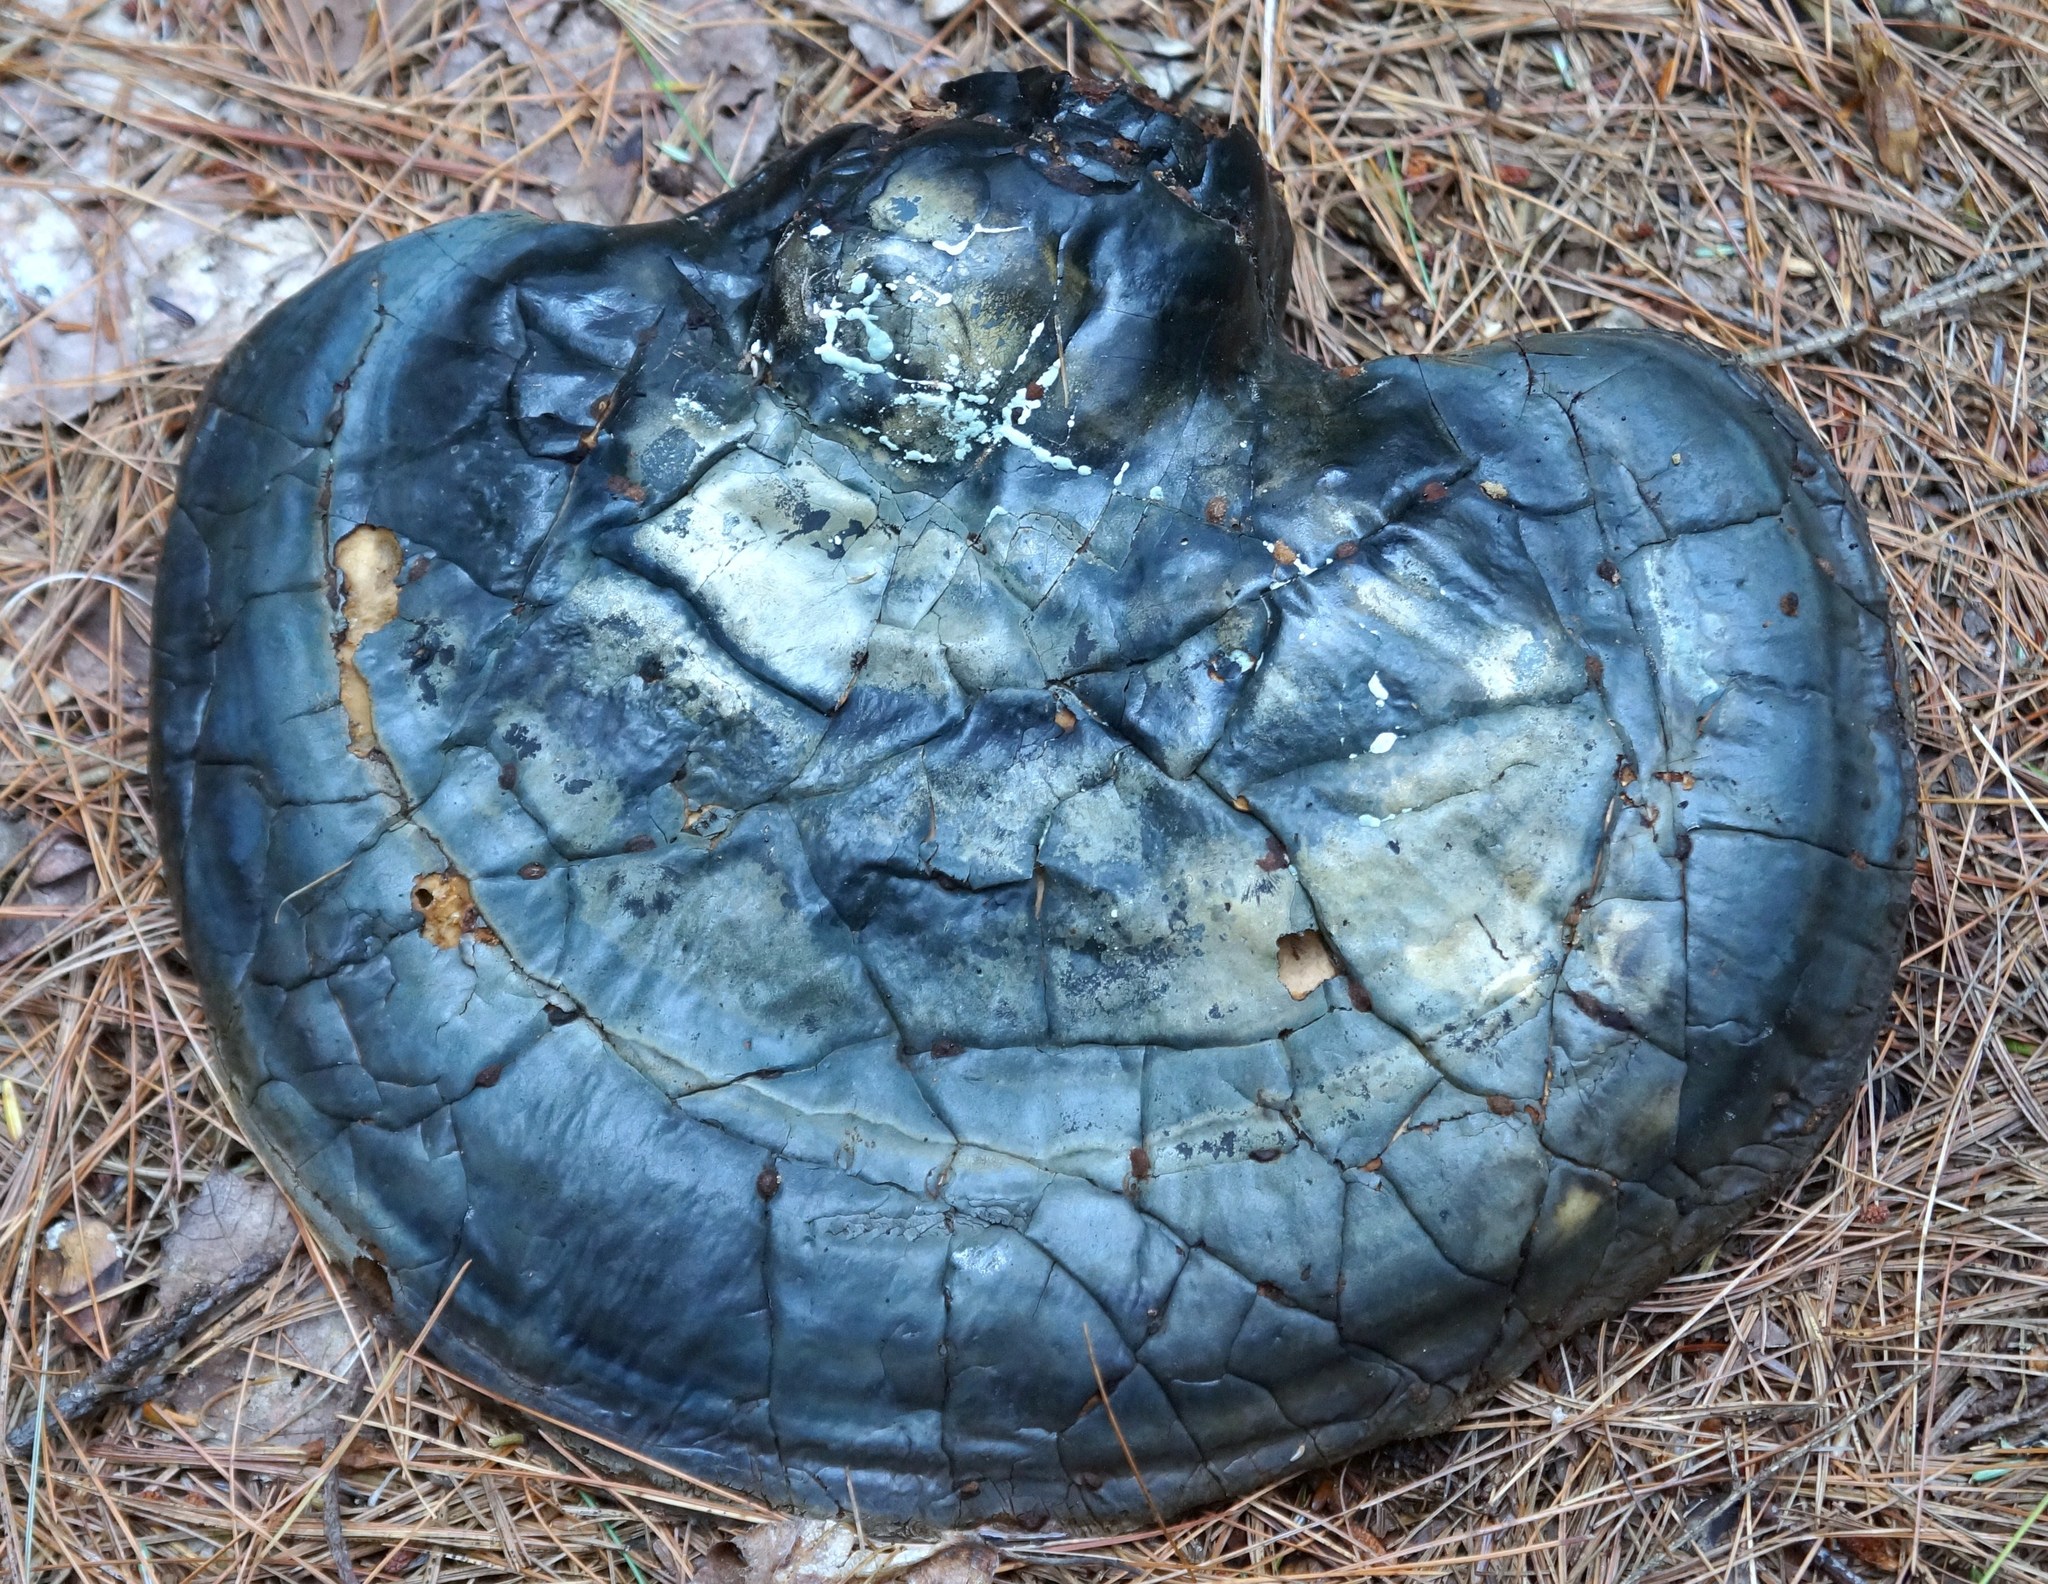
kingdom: Fungi
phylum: Basidiomycota
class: Agaricomycetes
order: Polyporales
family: Polyporaceae
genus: Ganoderma
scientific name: Ganoderma tsugae
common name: Hemlock varnish shelf
